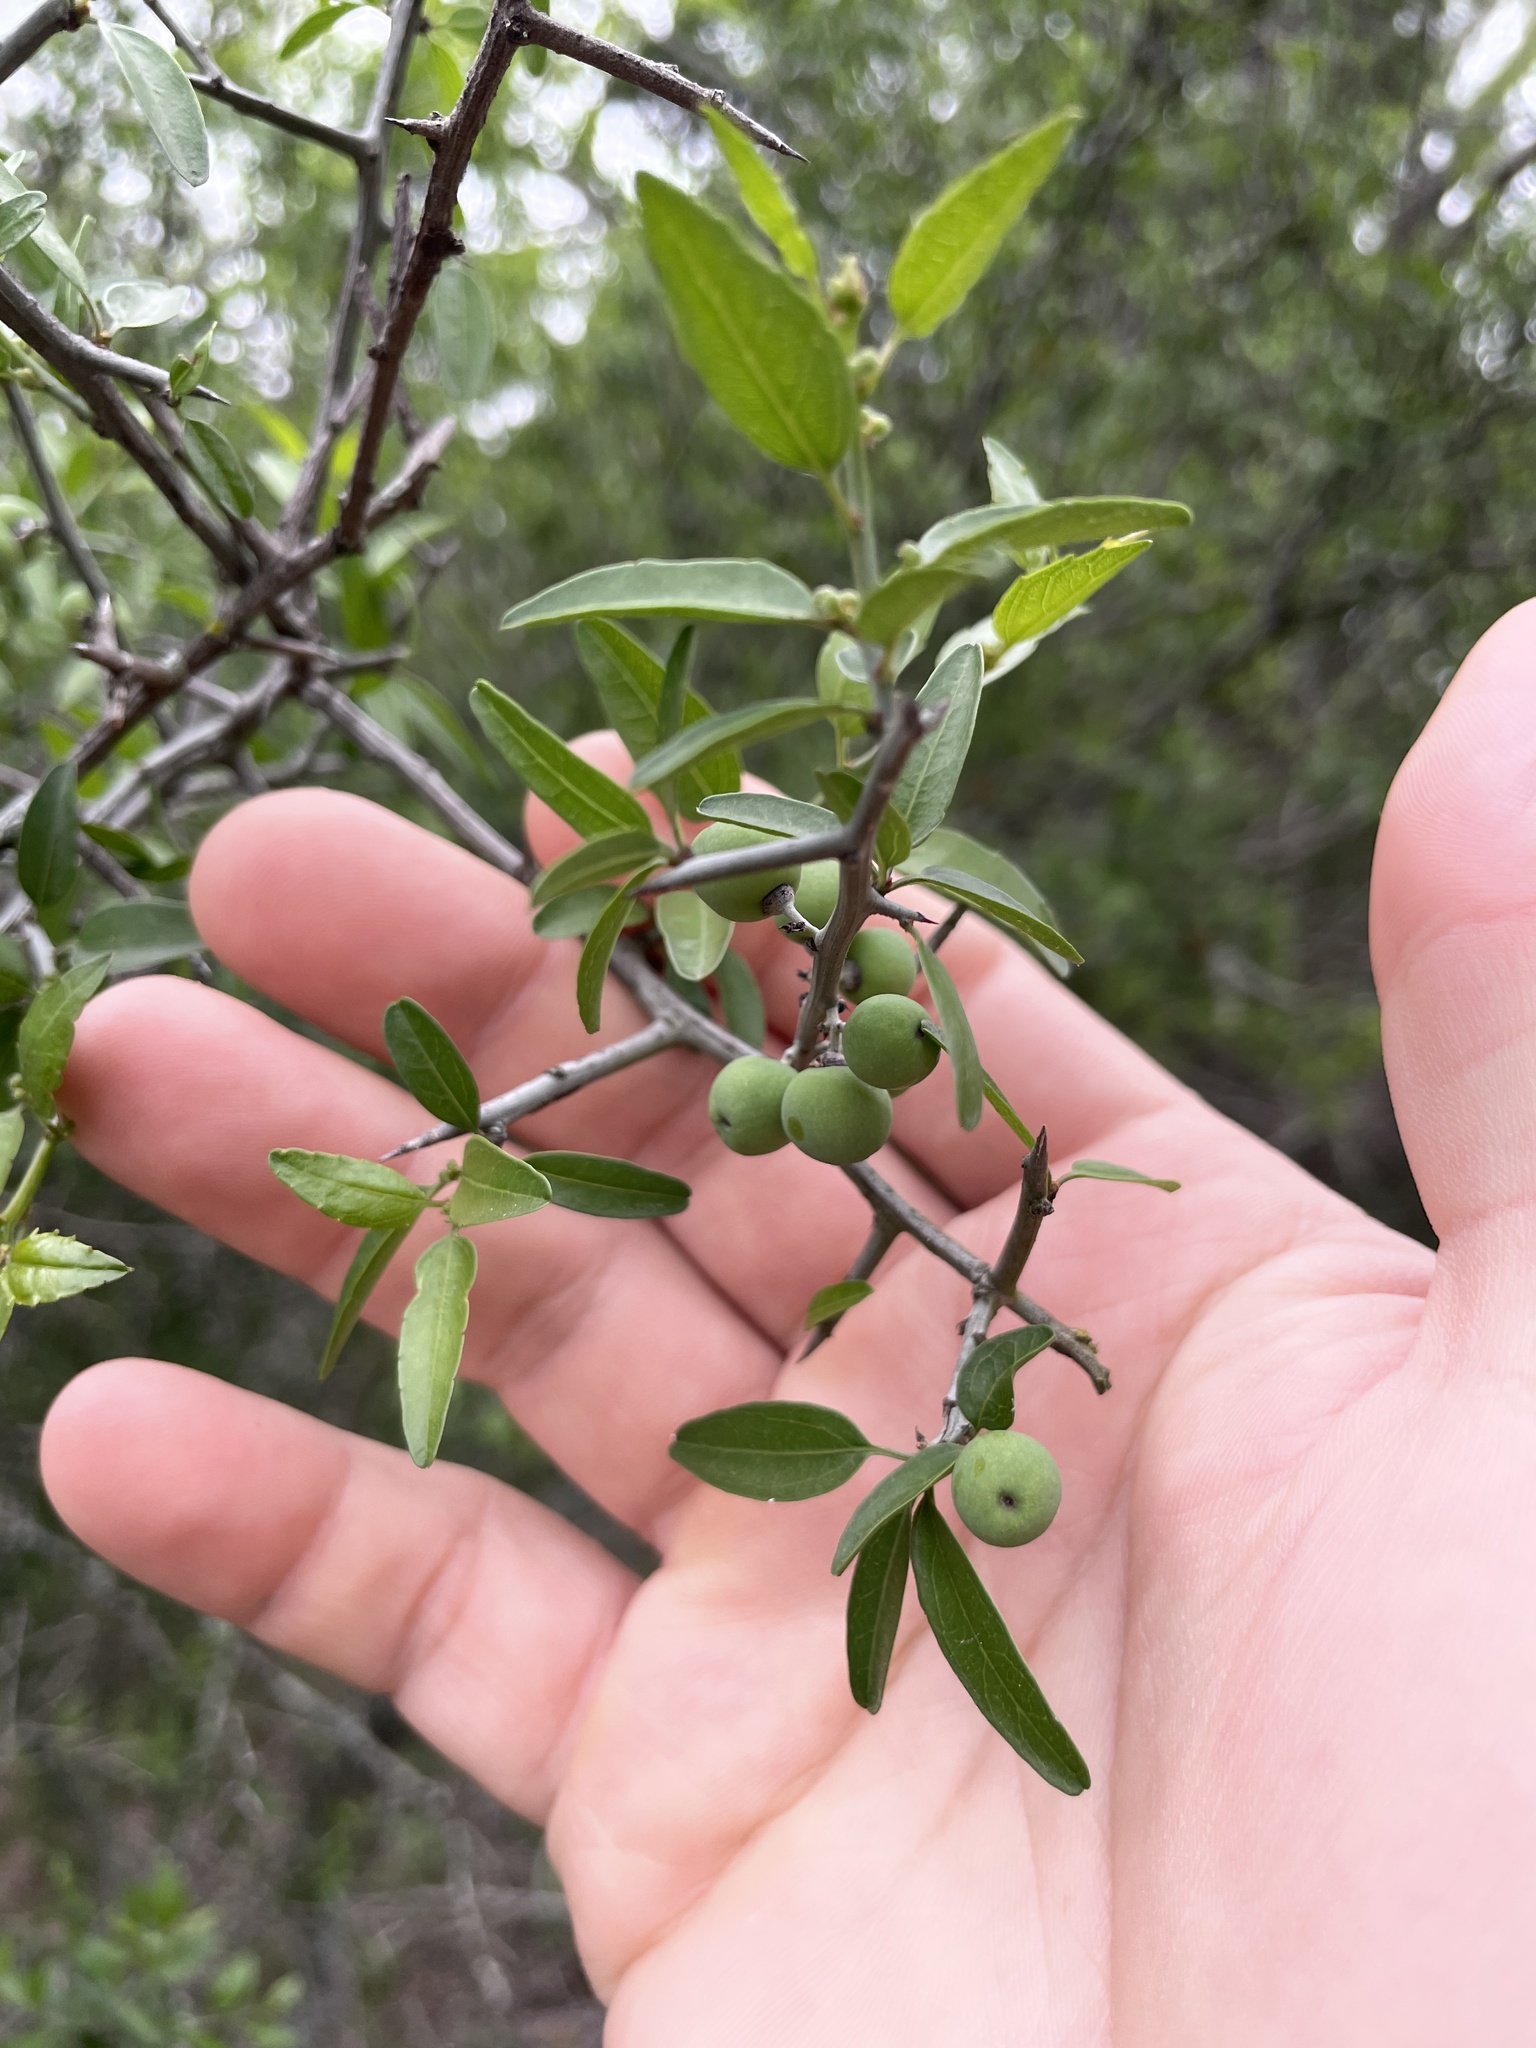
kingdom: Plantae
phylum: Tracheophyta
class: Magnoliopsida
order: Rosales
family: Rhamnaceae
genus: Sarcomphalus
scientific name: Sarcomphalus obtusifolius
